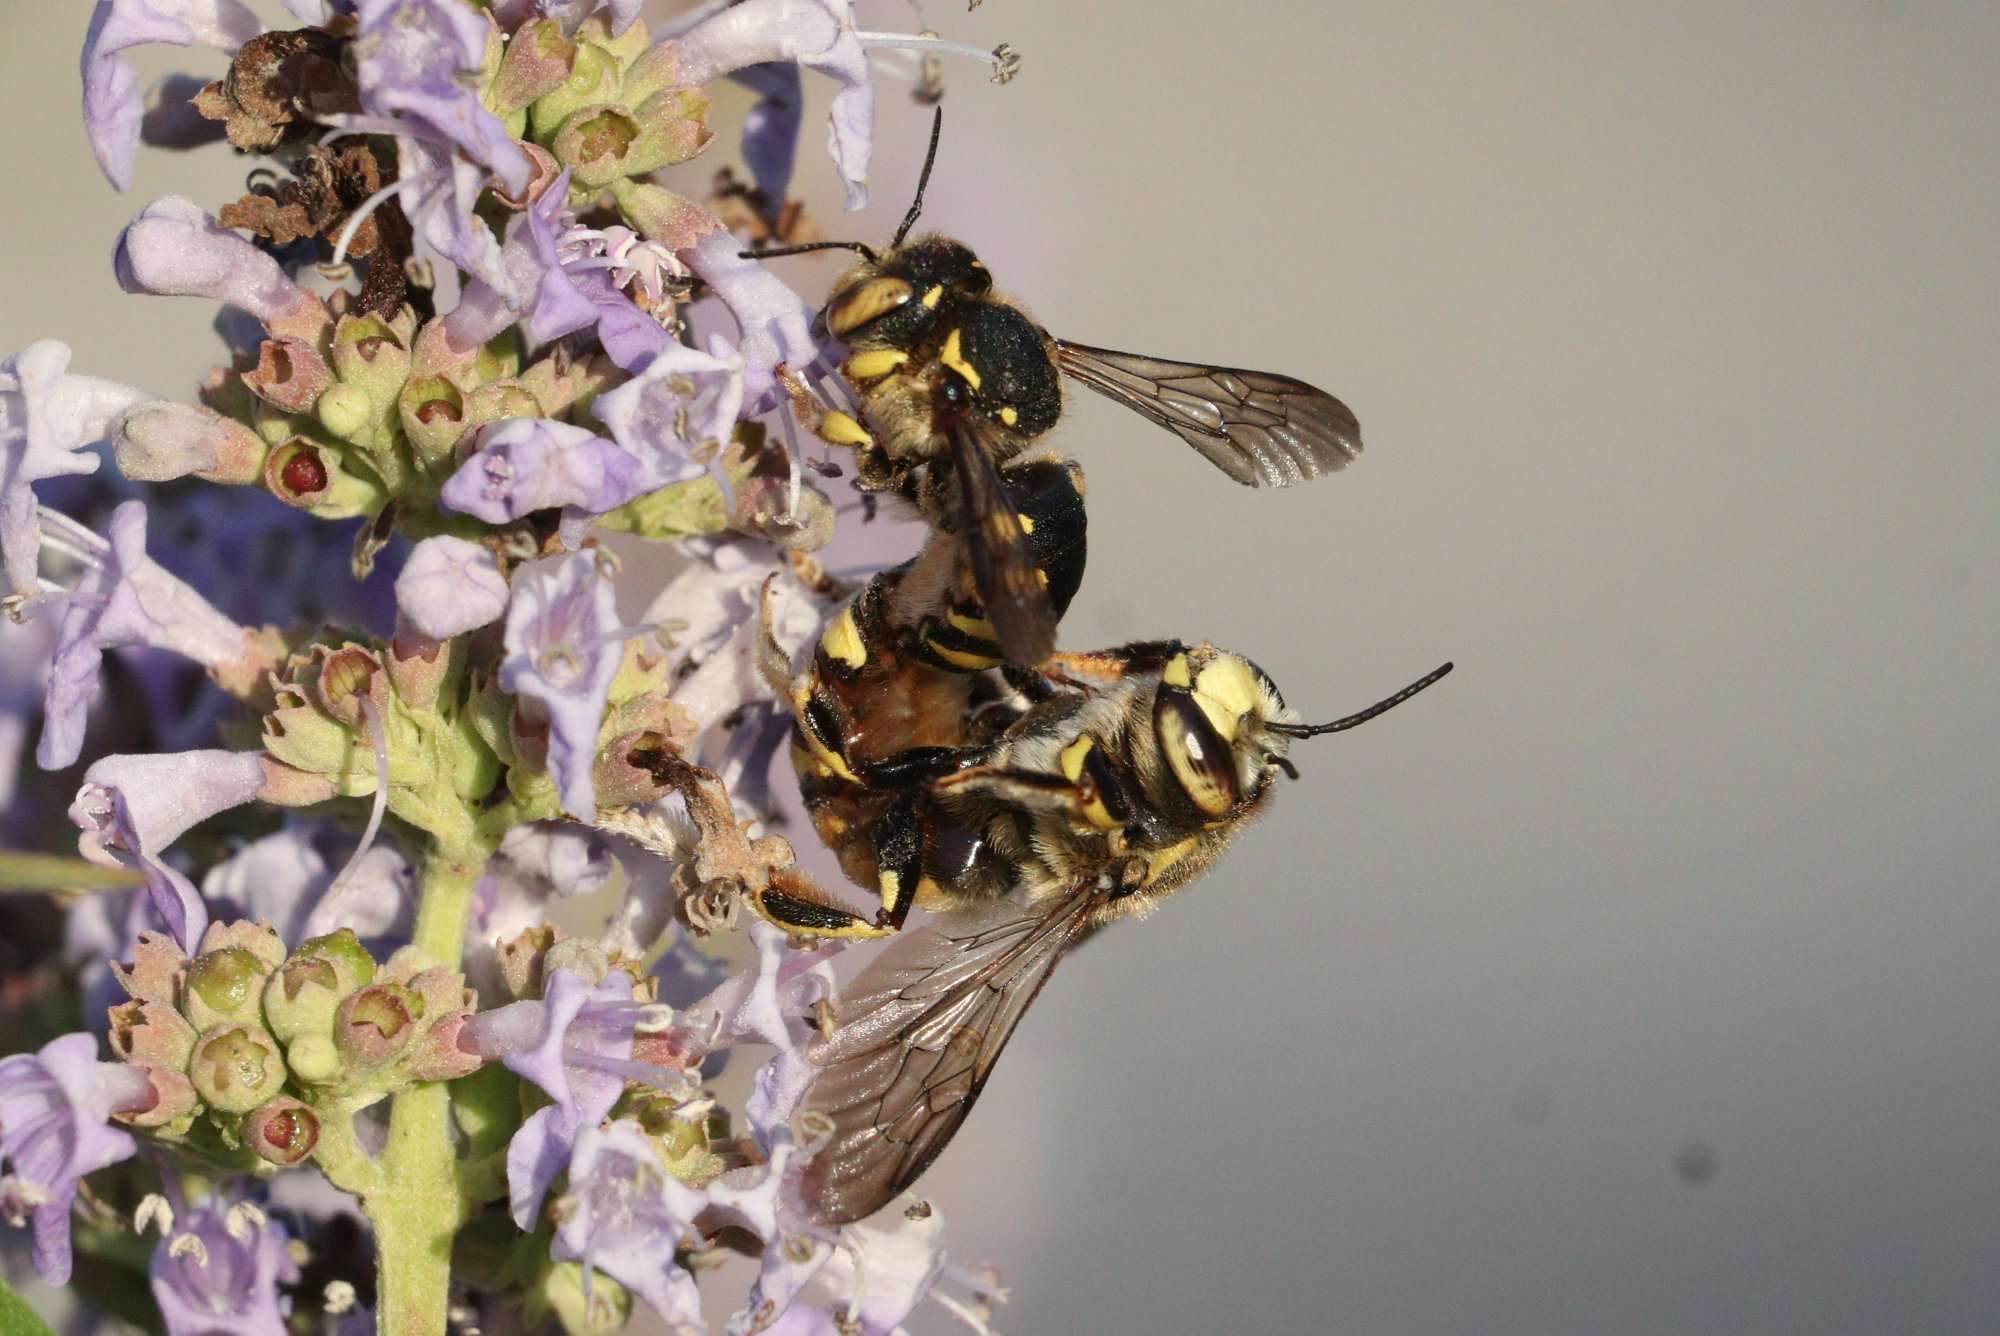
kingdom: Animalia
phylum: Arthropoda
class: Insecta
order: Hymenoptera
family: Megachilidae
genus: Anthidium
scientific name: Anthidium florentinum
